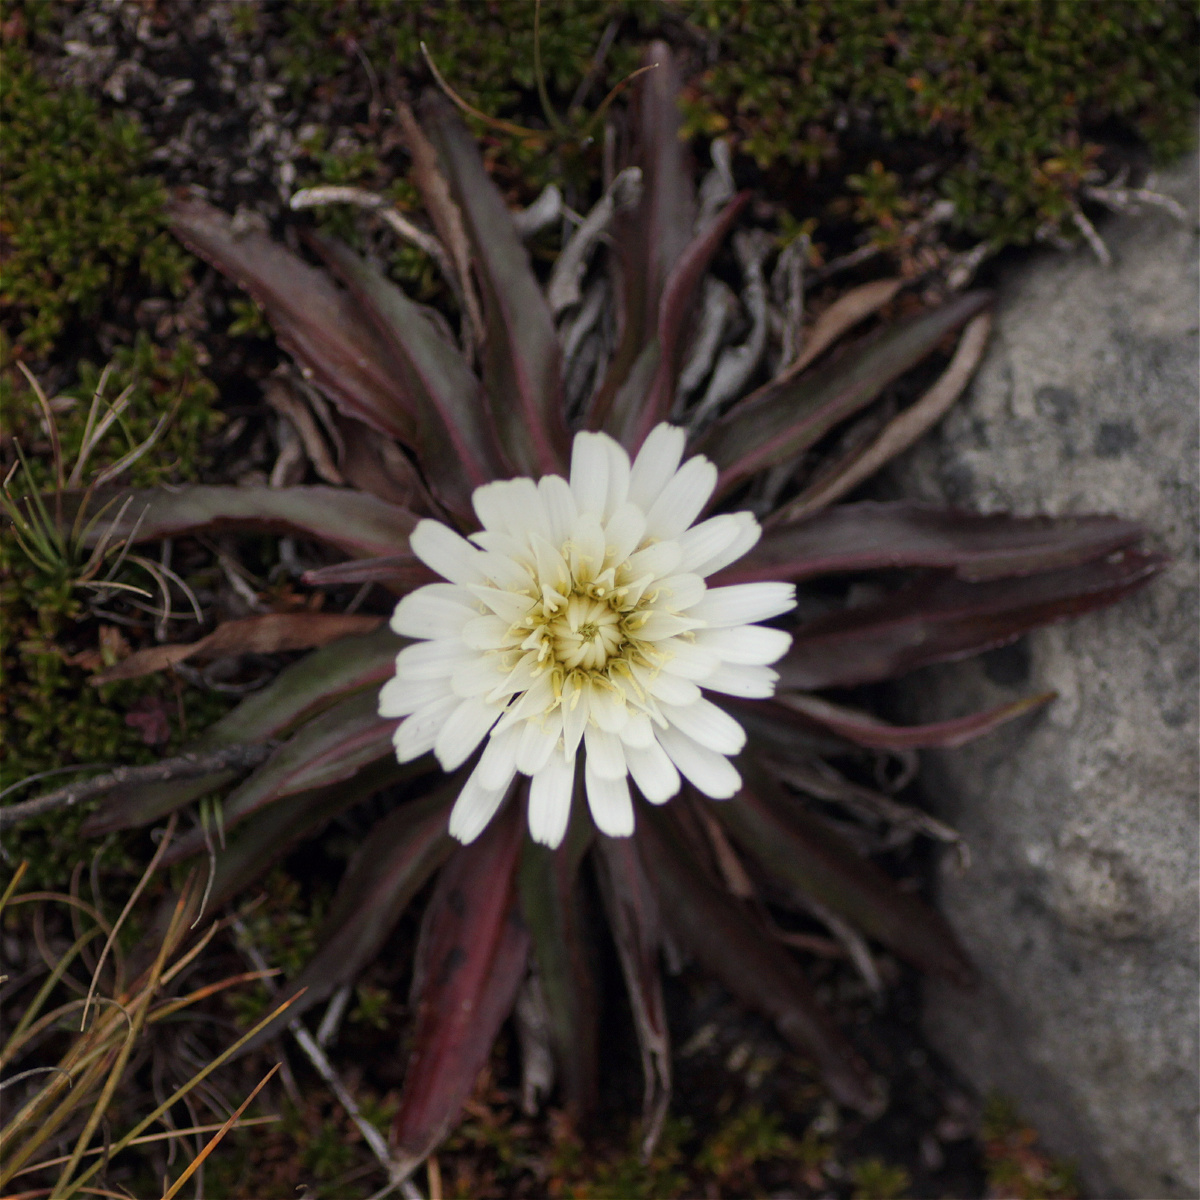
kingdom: Plantae
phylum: Tracheophyta
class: Magnoliopsida
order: Asterales
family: Asteraceae
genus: Hypochaeris
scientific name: Hypochaeris sessiliflora
